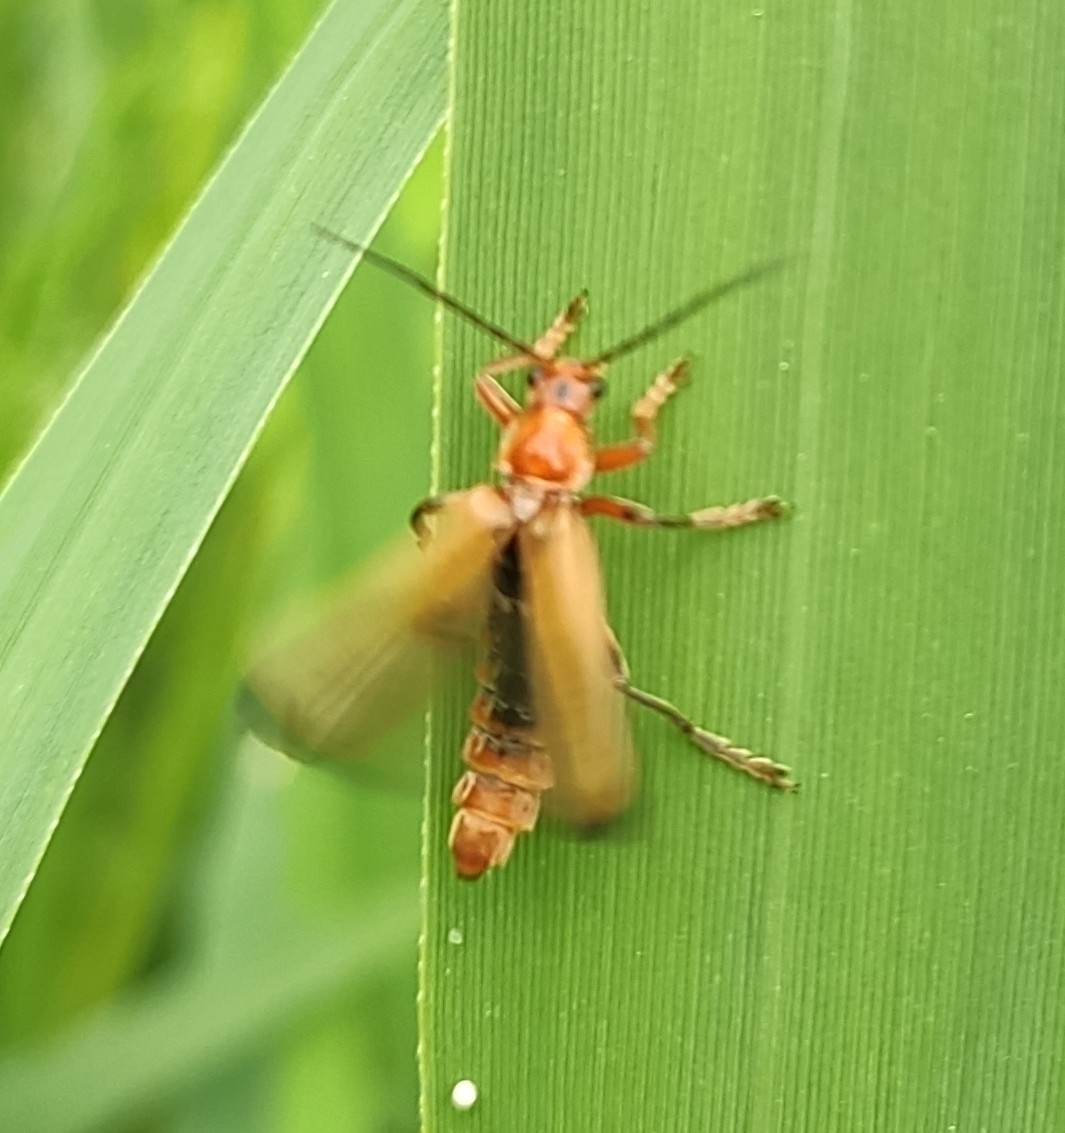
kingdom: Animalia
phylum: Arthropoda
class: Insecta
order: Coleoptera
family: Cantharidae
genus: Cantharis
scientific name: Cantharis livida
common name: Livid soldier beetle
